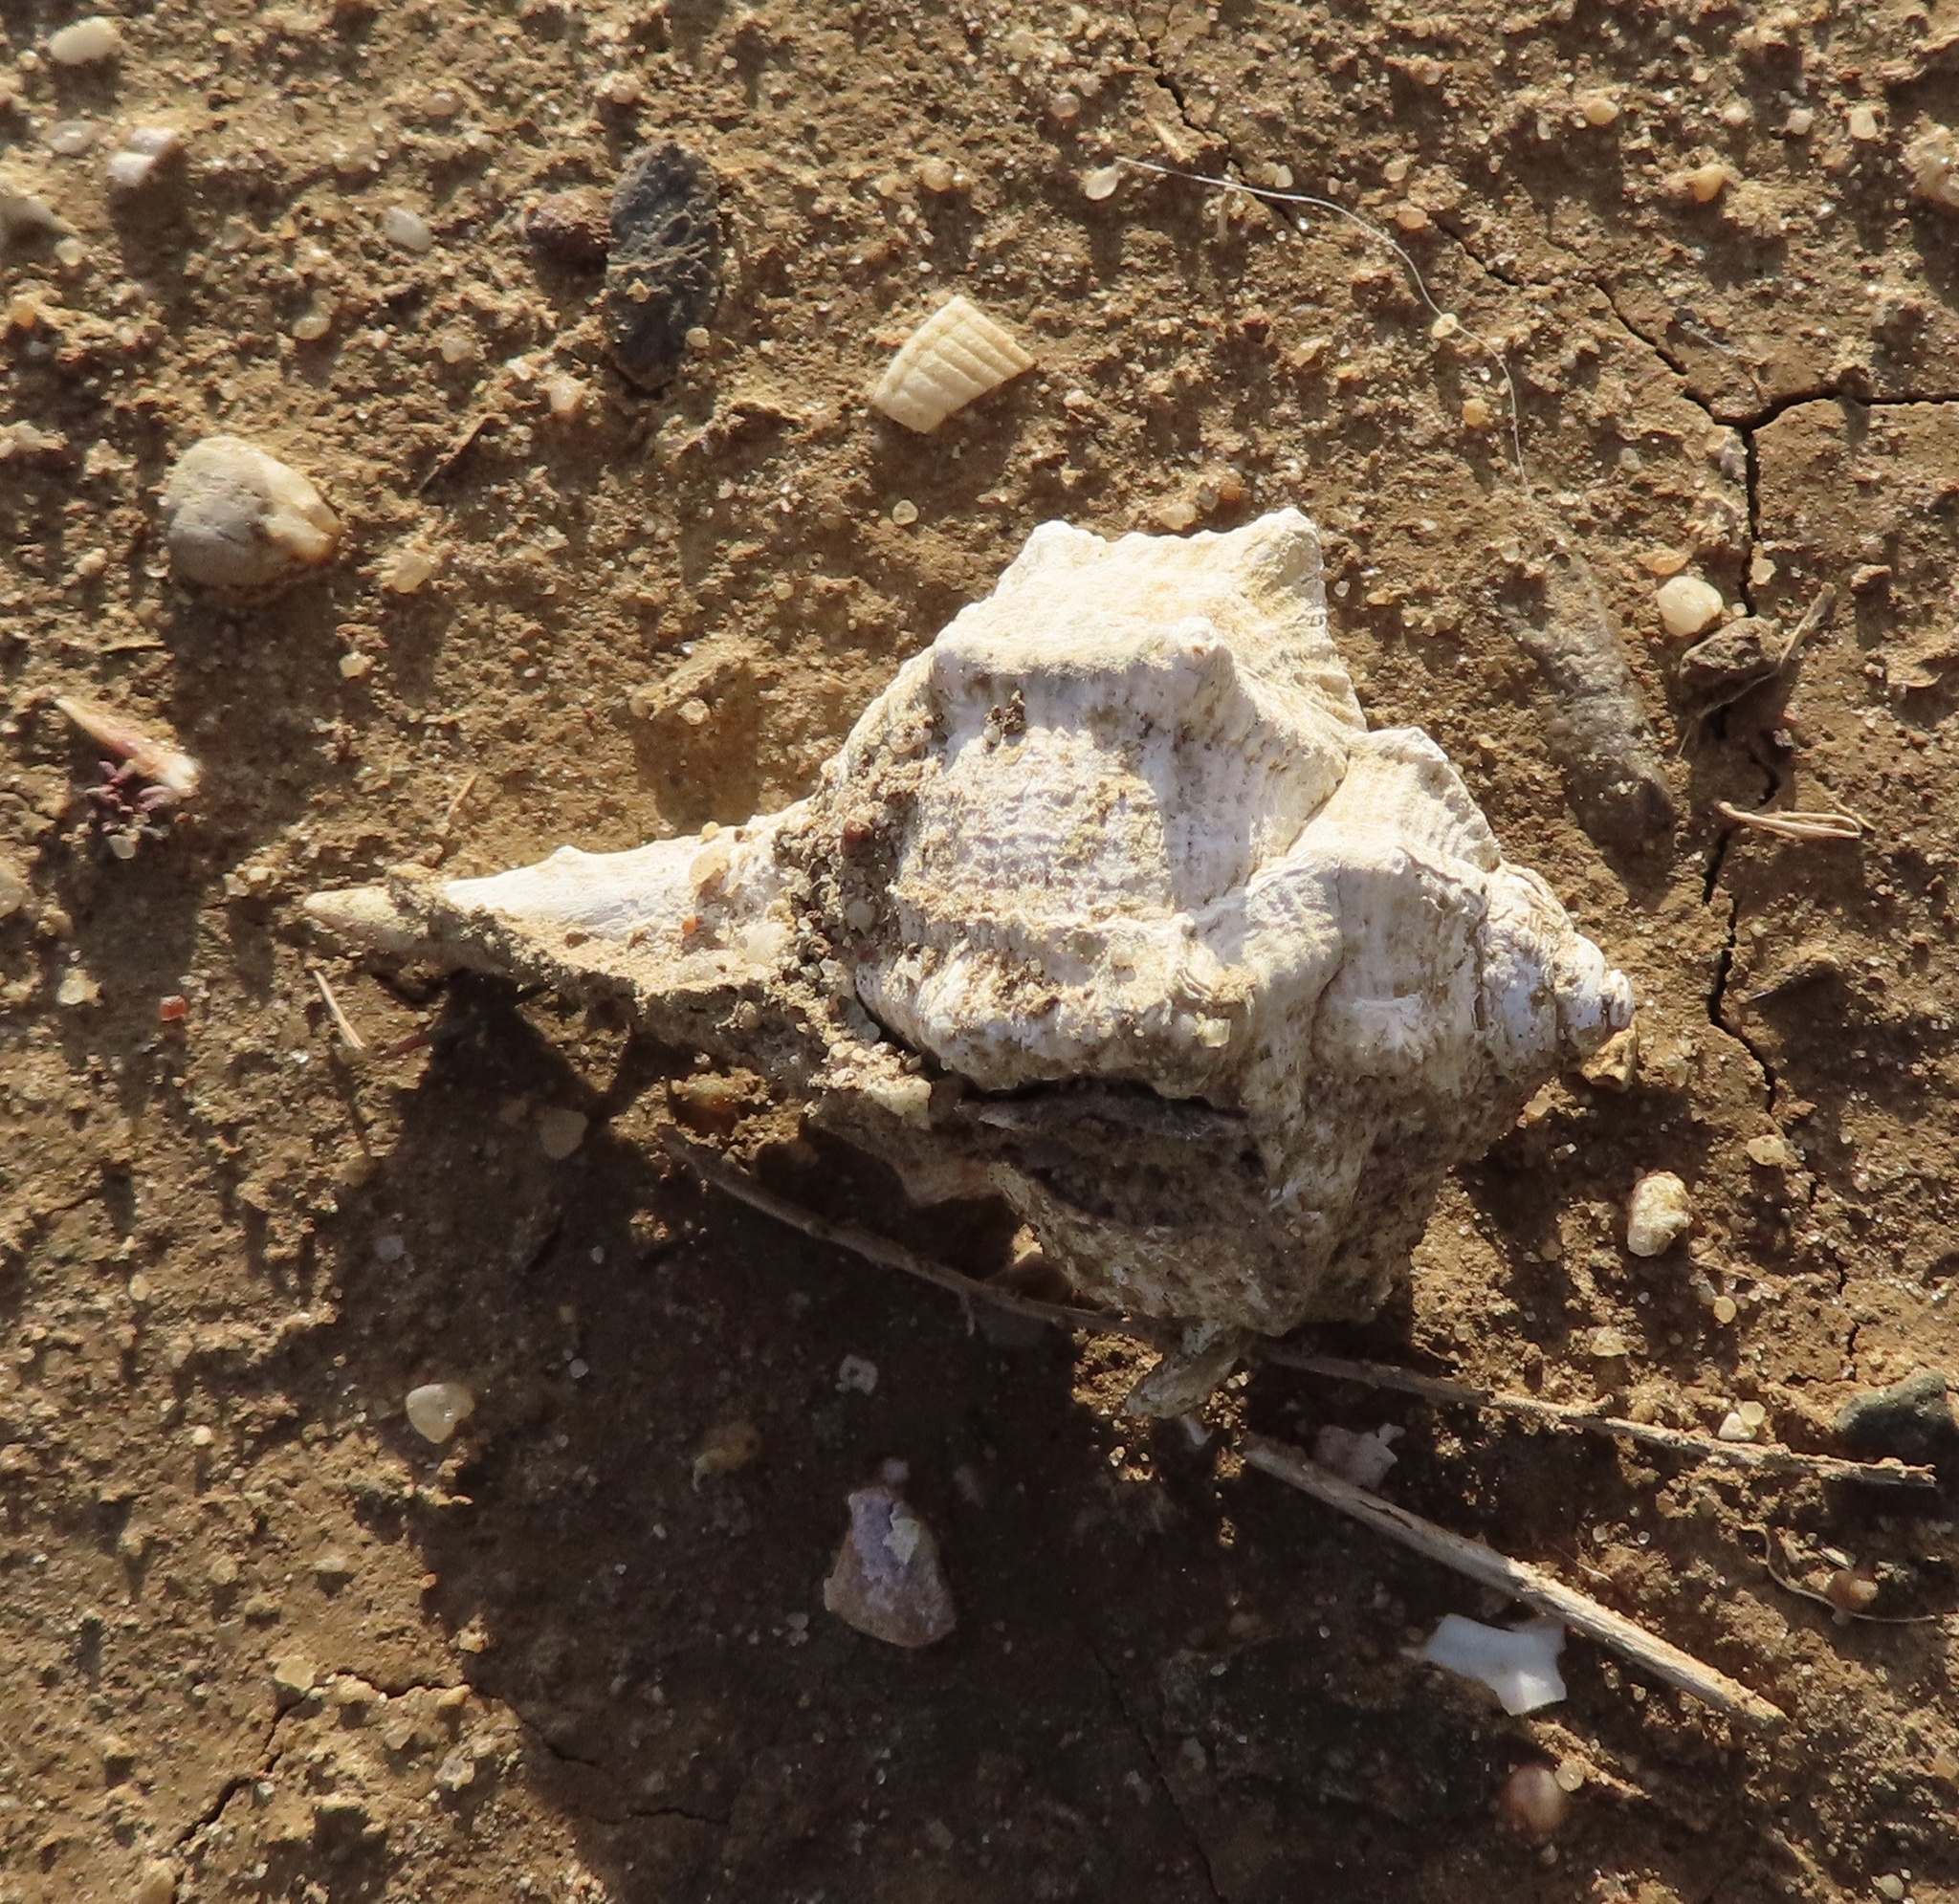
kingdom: Animalia
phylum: Mollusca
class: Gastropoda
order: Neogastropoda
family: Muricidae
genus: Bolinus
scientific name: Bolinus brandaris
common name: Dye murex
